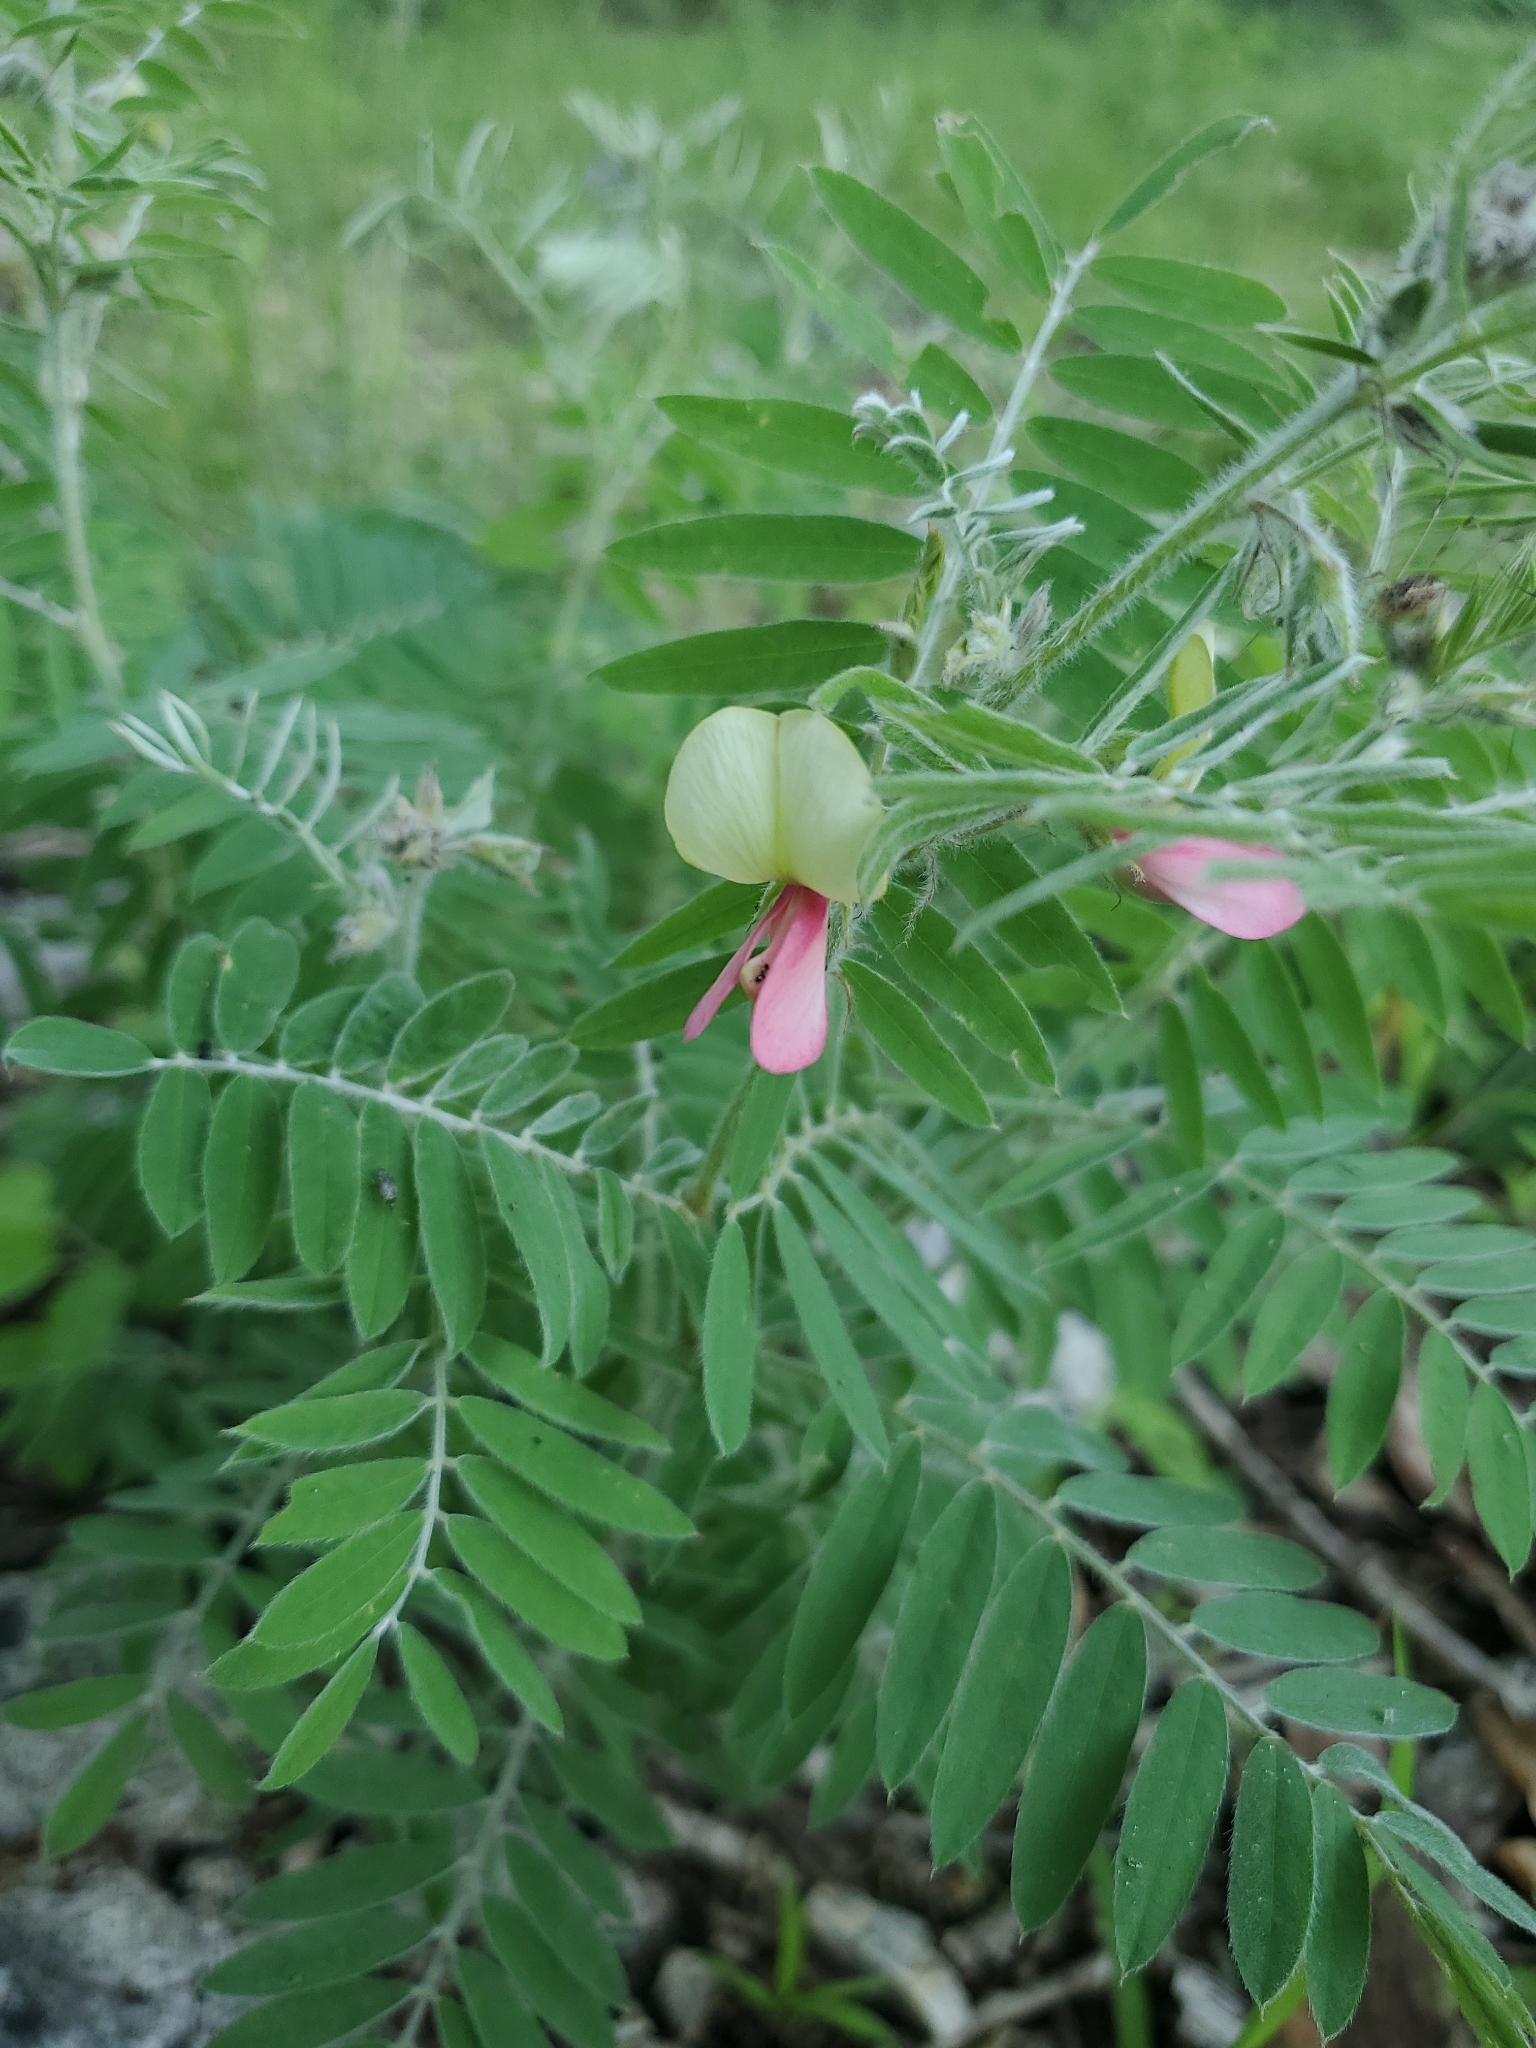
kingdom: Plantae
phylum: Tracheophyta
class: Magnoliopsida
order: Fabales
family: Fabaceae
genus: Tephrosia
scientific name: Tephrosia virginiana
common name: Rabbit-pea
